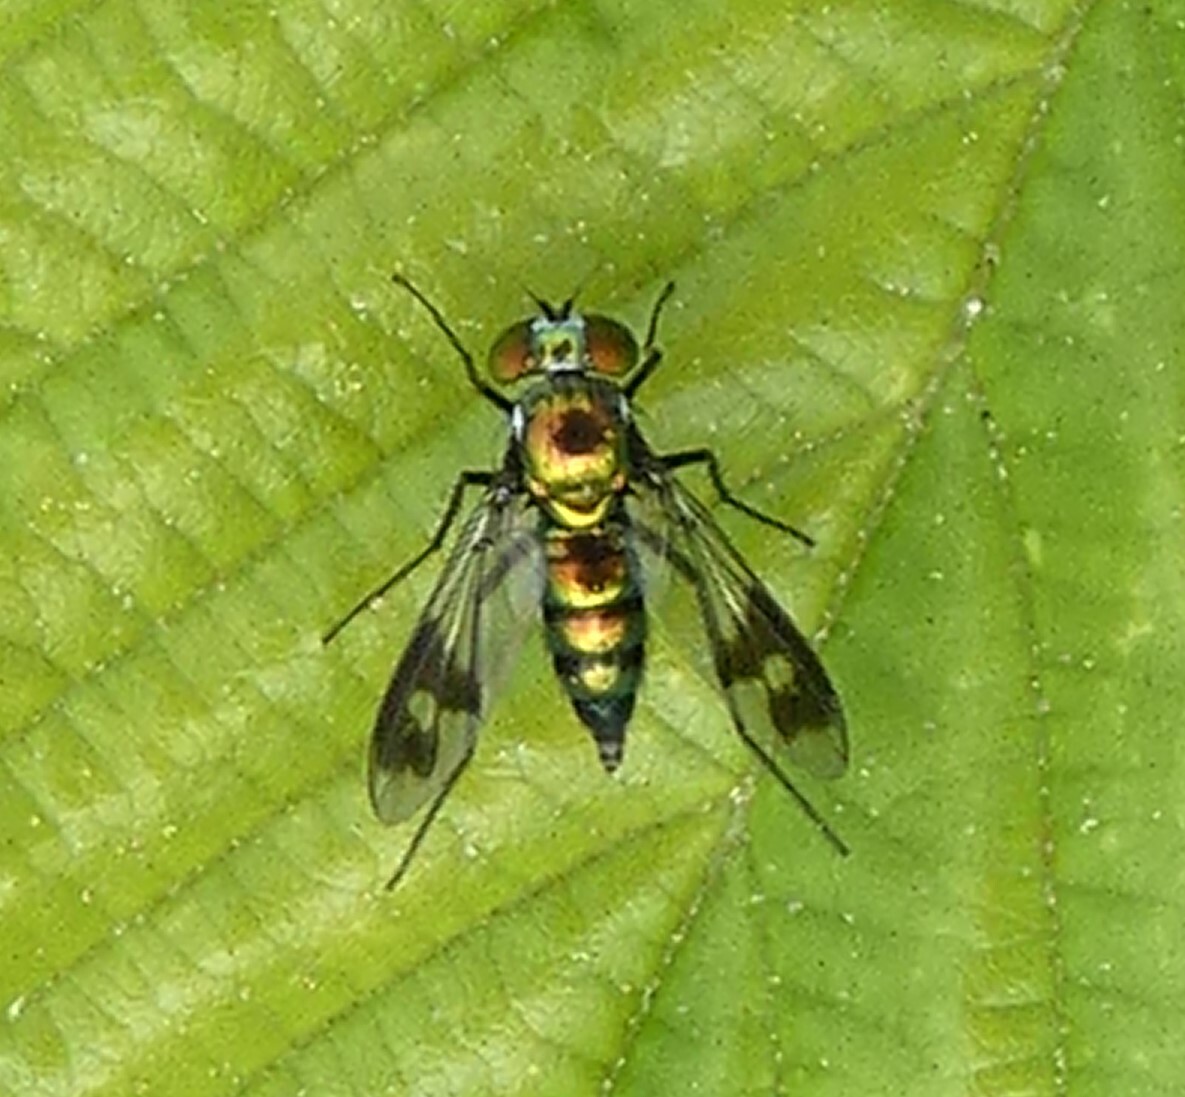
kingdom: Animalia
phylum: Arthropoda
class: Insecta
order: Diptera
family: Dolichopodidae
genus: Condylostylus
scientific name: Condylostylus patibulatus
